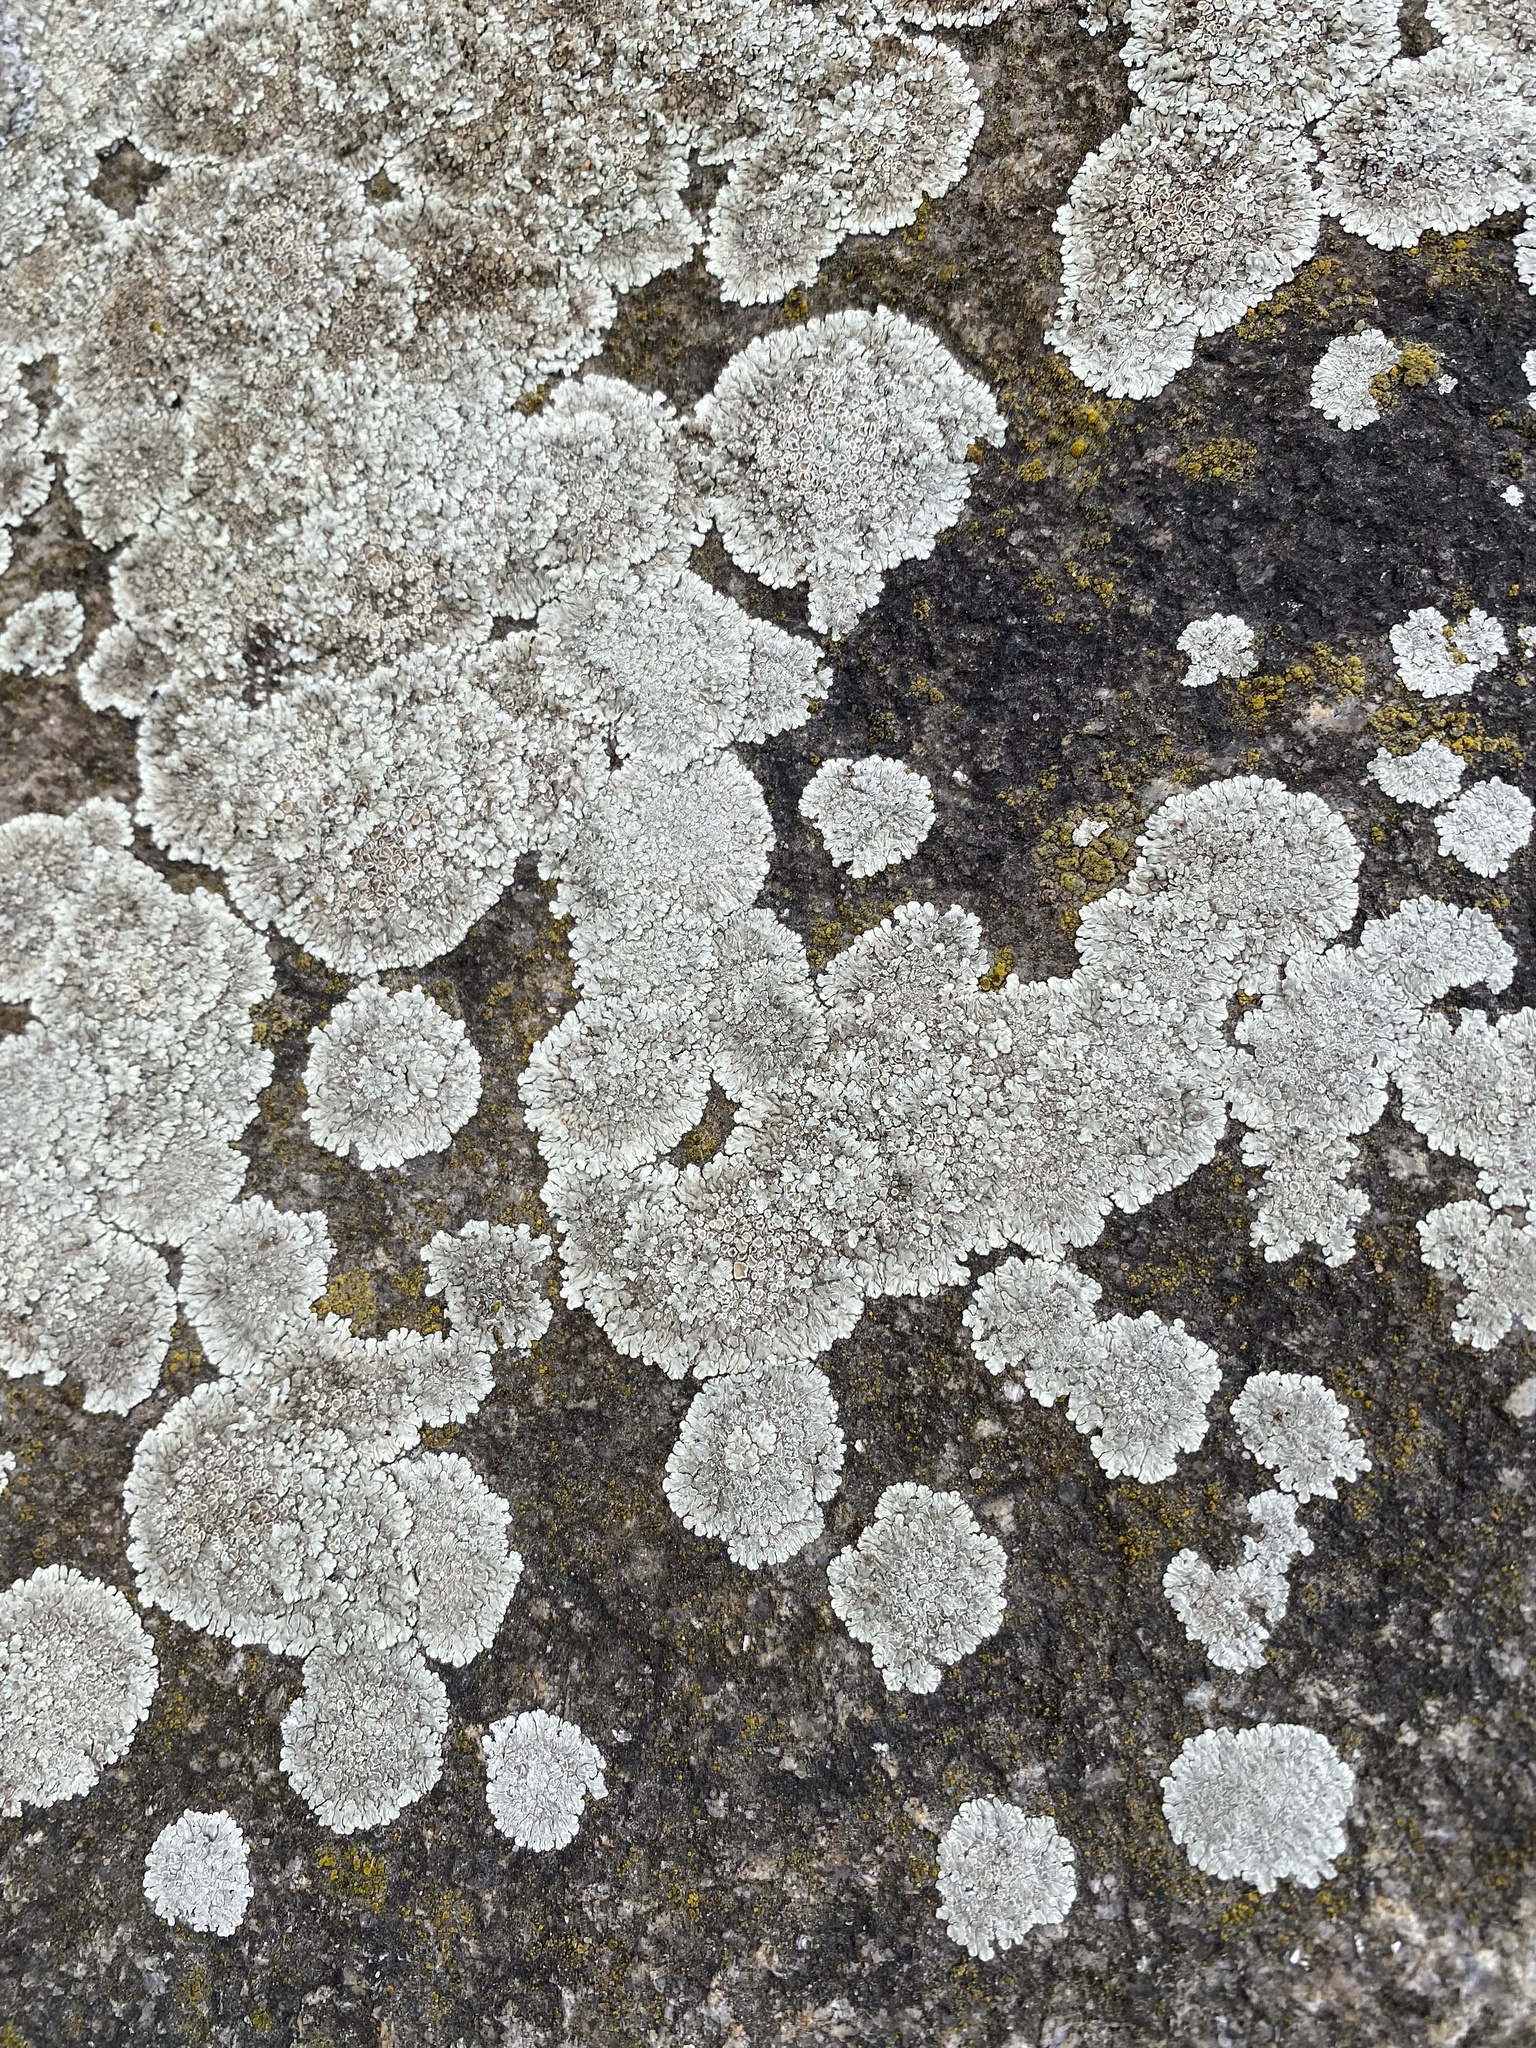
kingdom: Fungi
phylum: Ascomycota
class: Lecanoromycetes
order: Lecanorales
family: Lecanoraceae
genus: Protoparmeliopsis
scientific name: Protoparmeliopsis muralis
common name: Stonewall rim lichen
